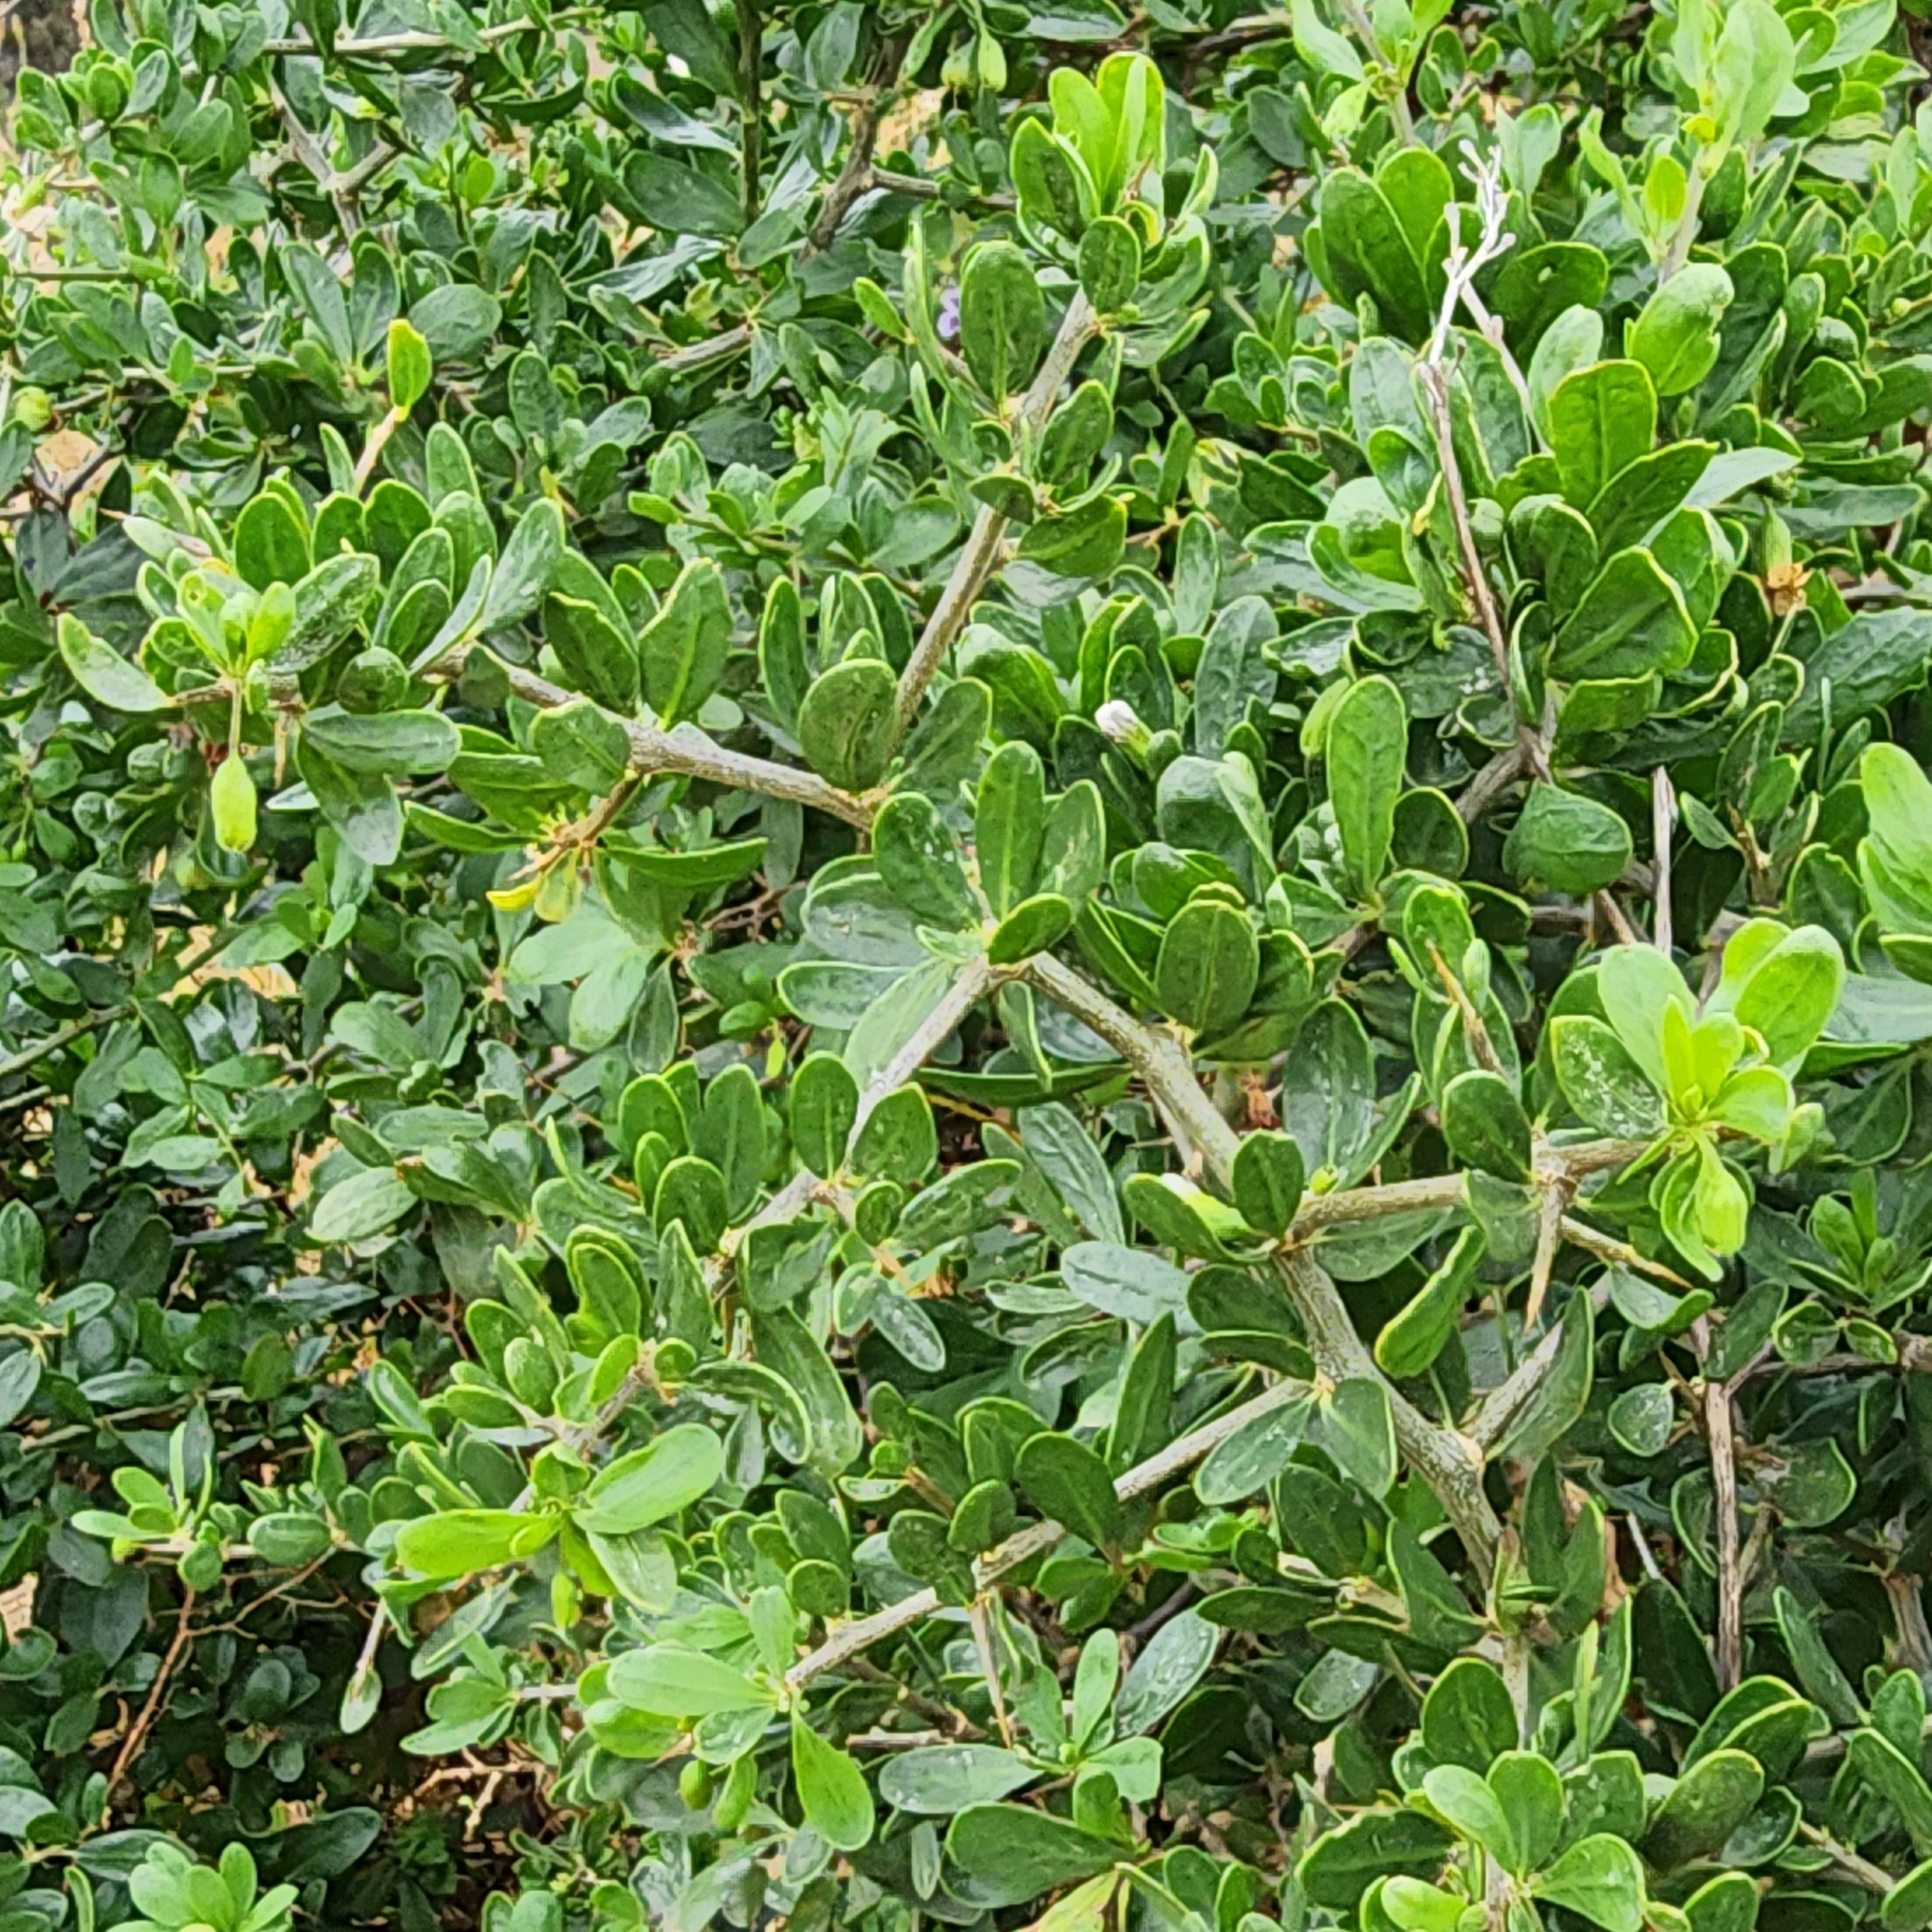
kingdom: Plantae
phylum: Tracheophyta
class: Magnoliopsida
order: Solanales
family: Solanaceae
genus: Lycium
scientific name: Lycium ferocissimum
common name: African boxthorn
